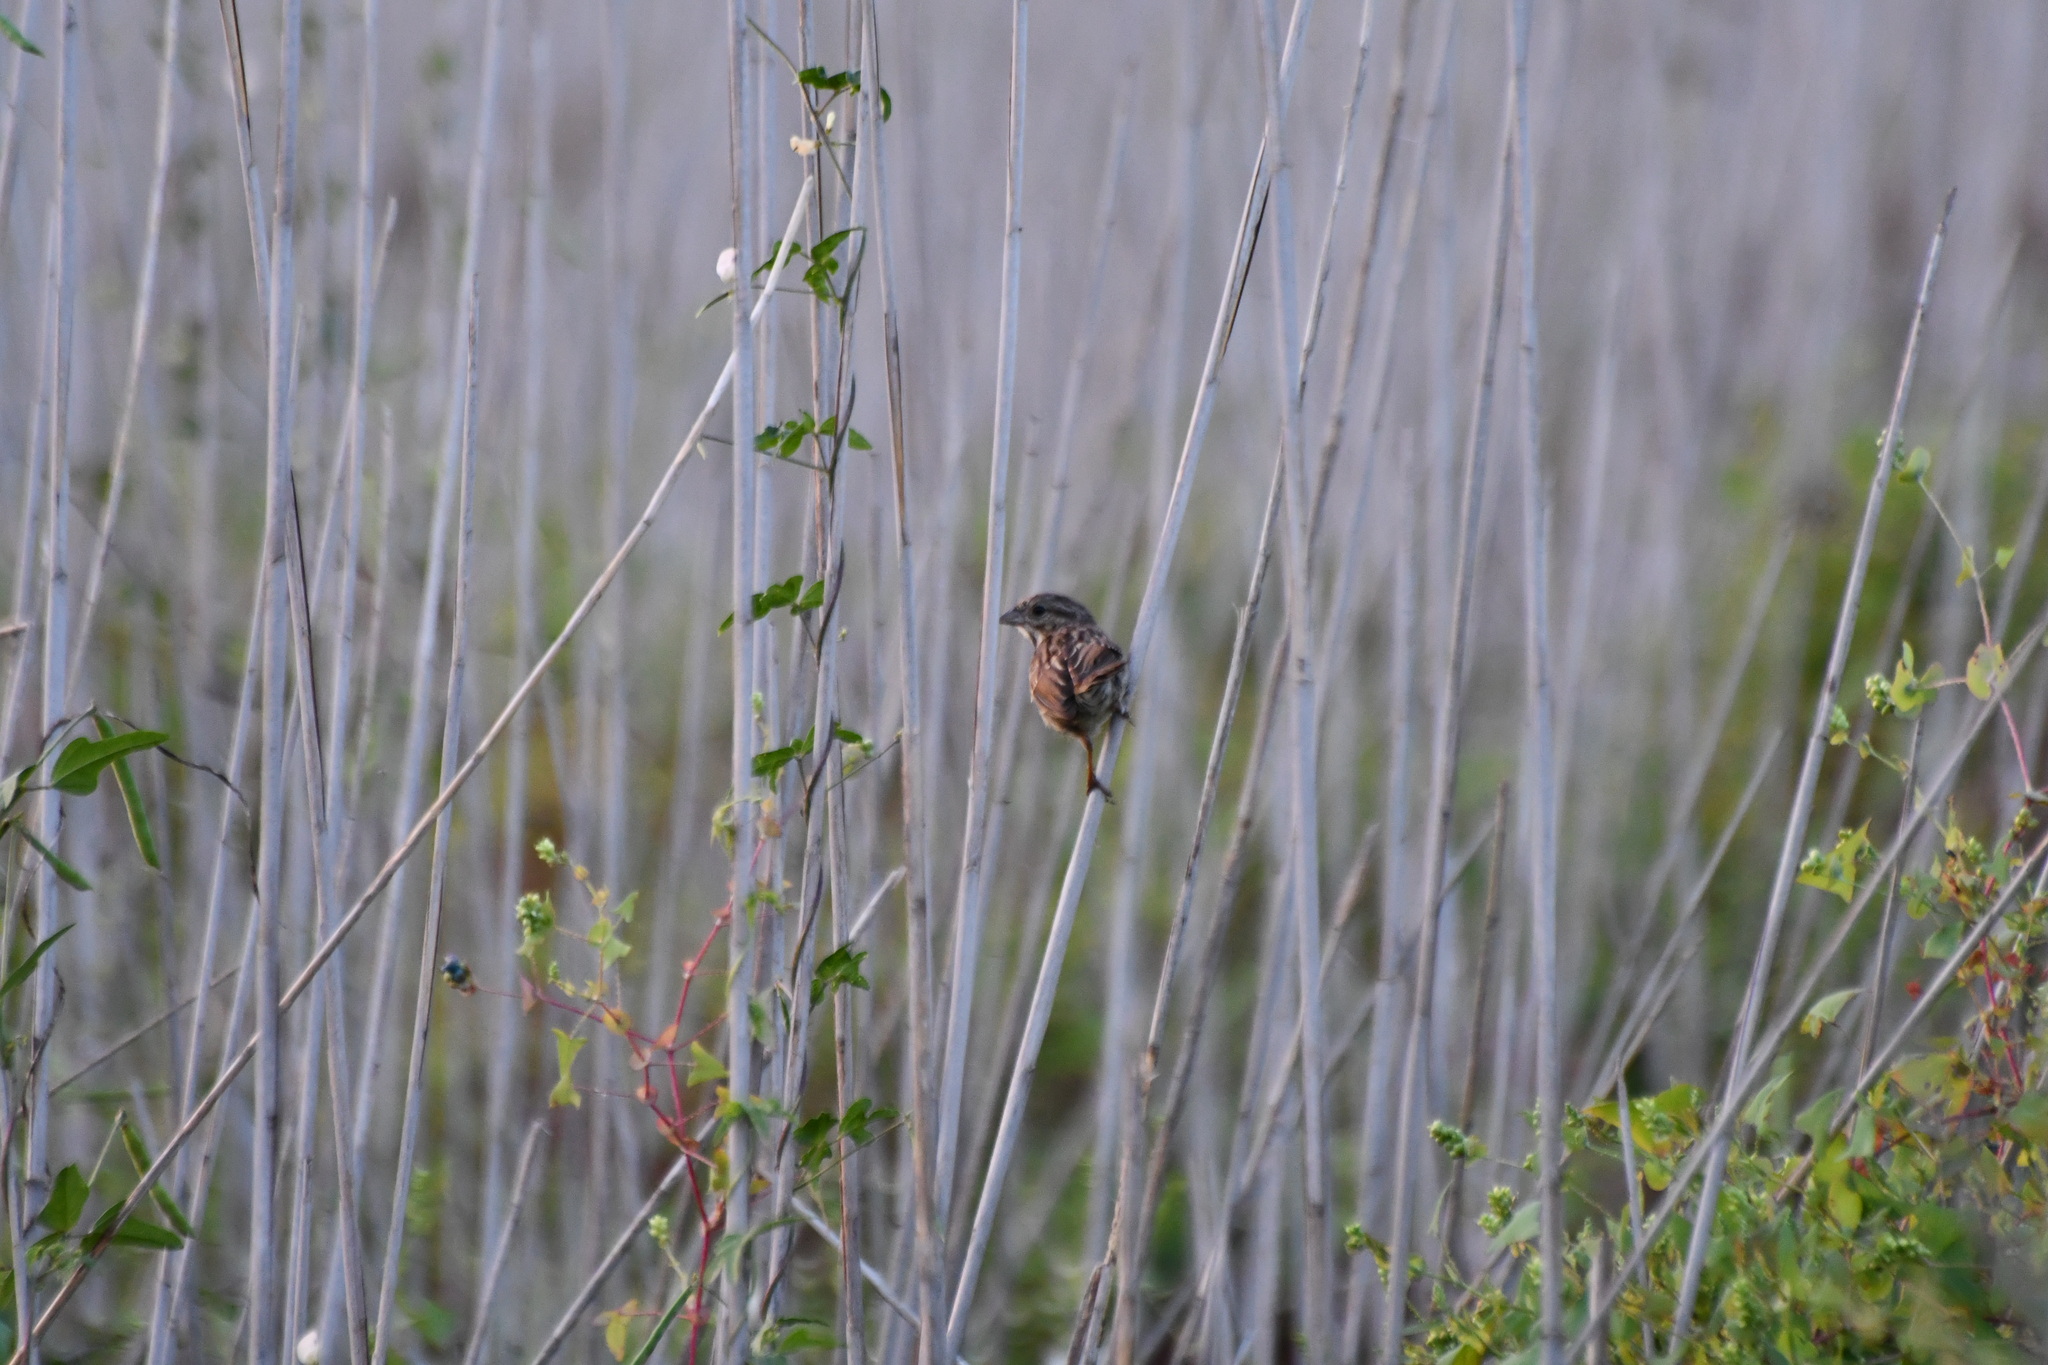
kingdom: Animalia
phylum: Chordata
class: Aves
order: Passeriformes
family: Passerellidae
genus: Melospiza
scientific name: Melospiza melodia
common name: Song sparrow
